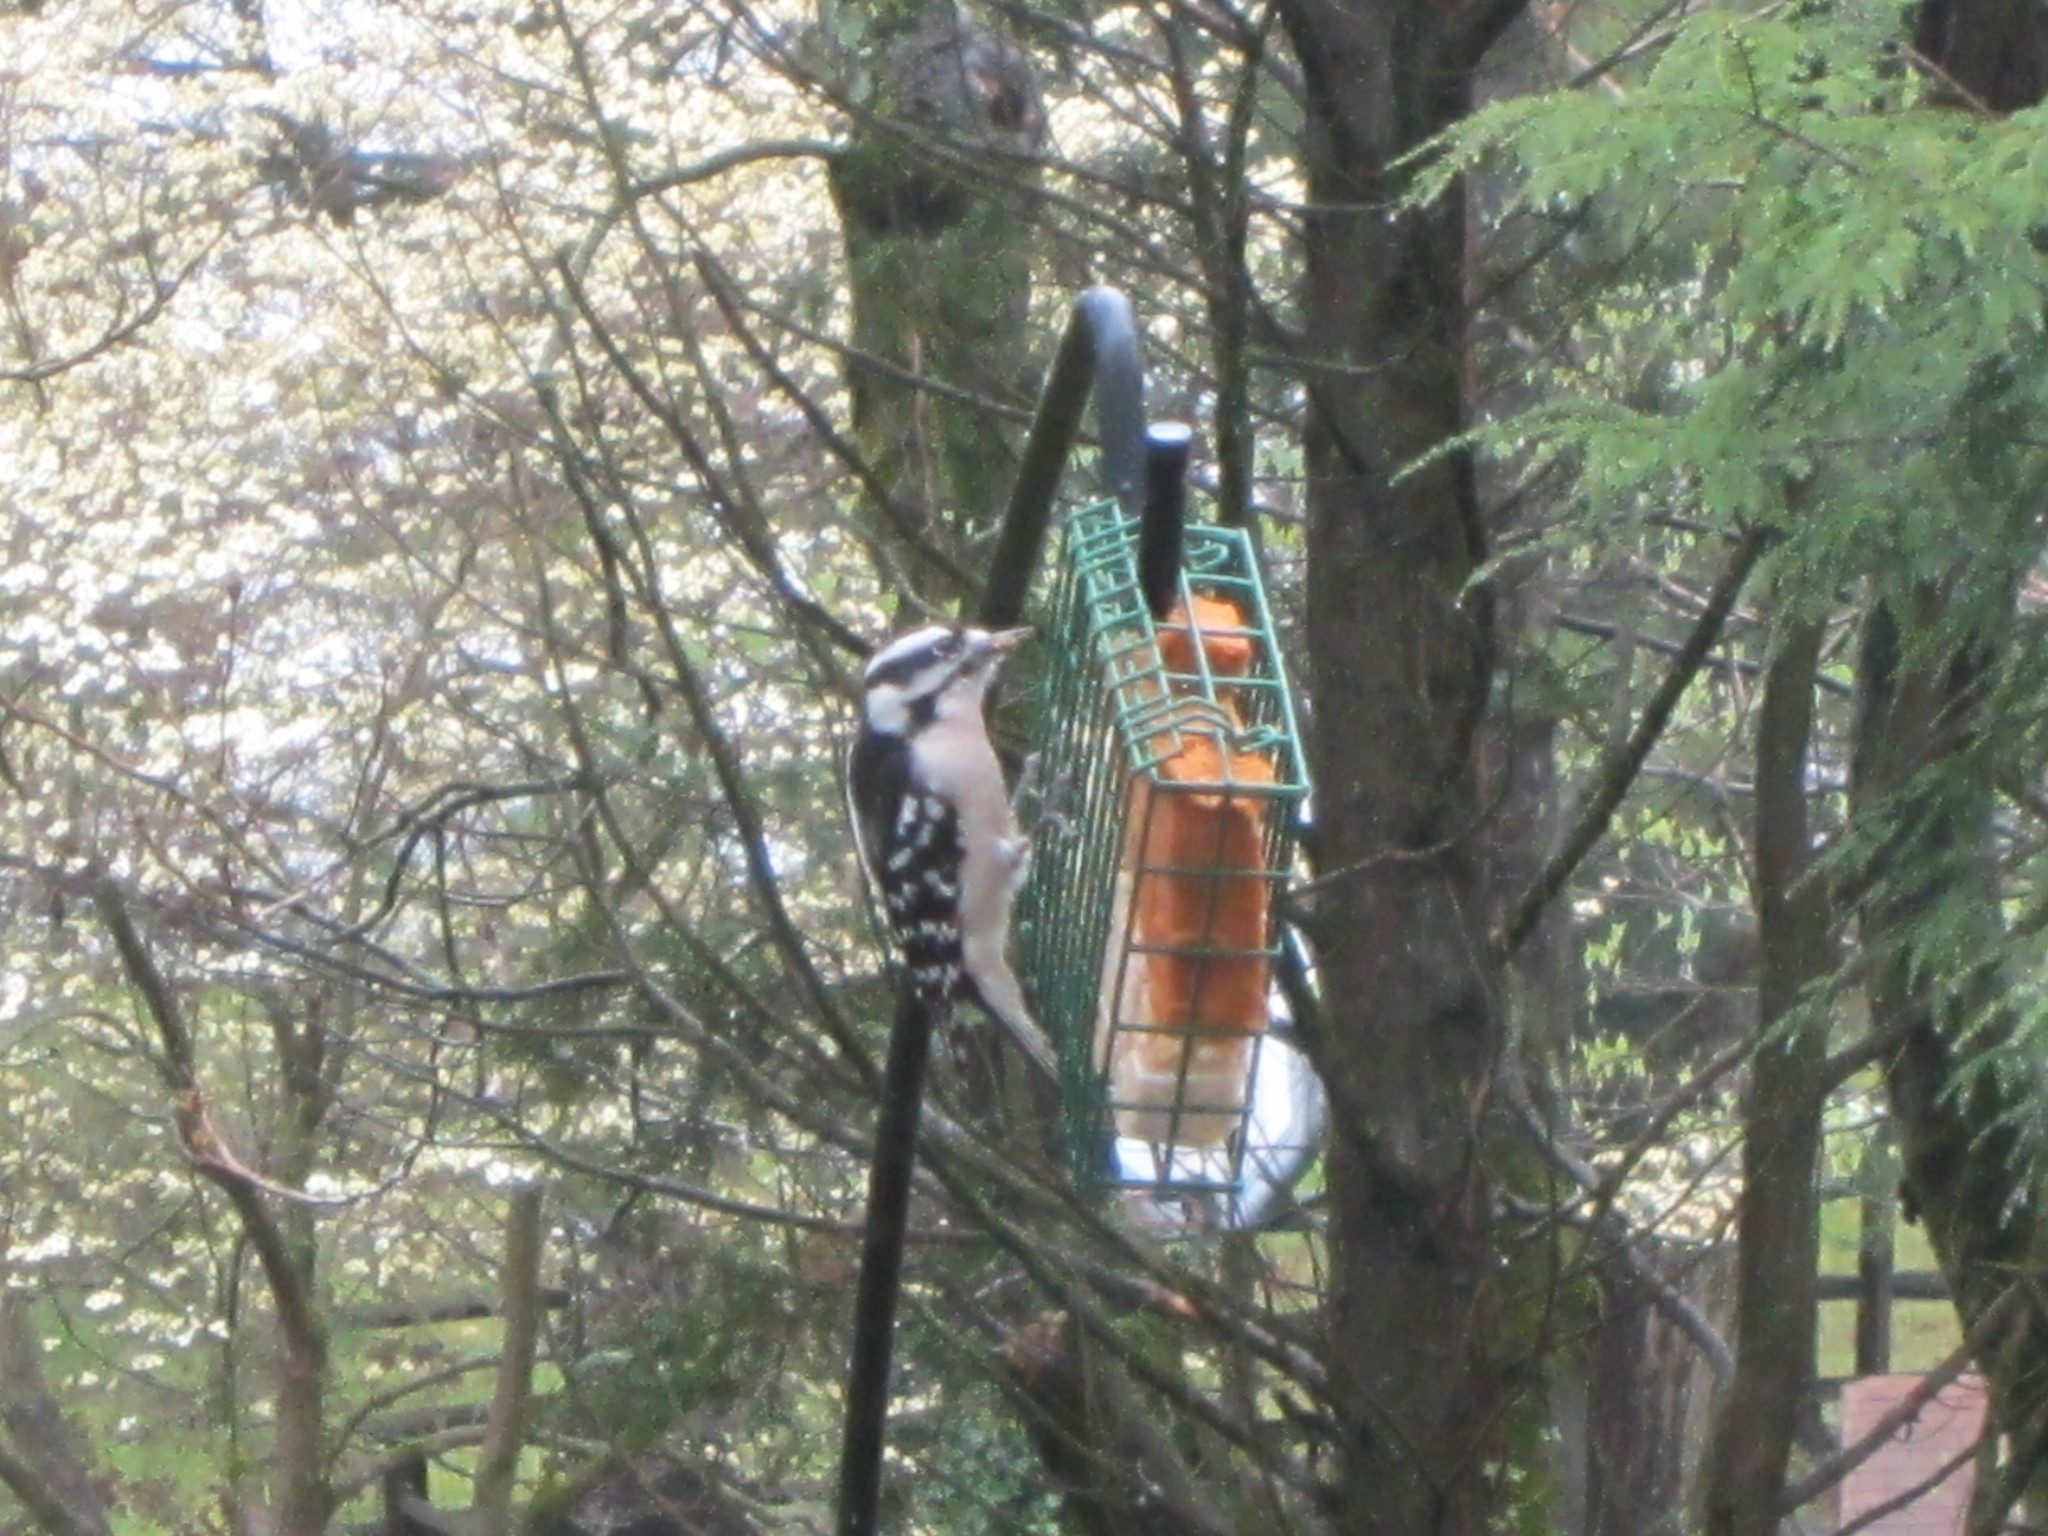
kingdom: Animalia
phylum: Chordata
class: Aves
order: Piciformes
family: Picidae
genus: Dryobates
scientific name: Dryobates pubescens
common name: Downy woodpecker
